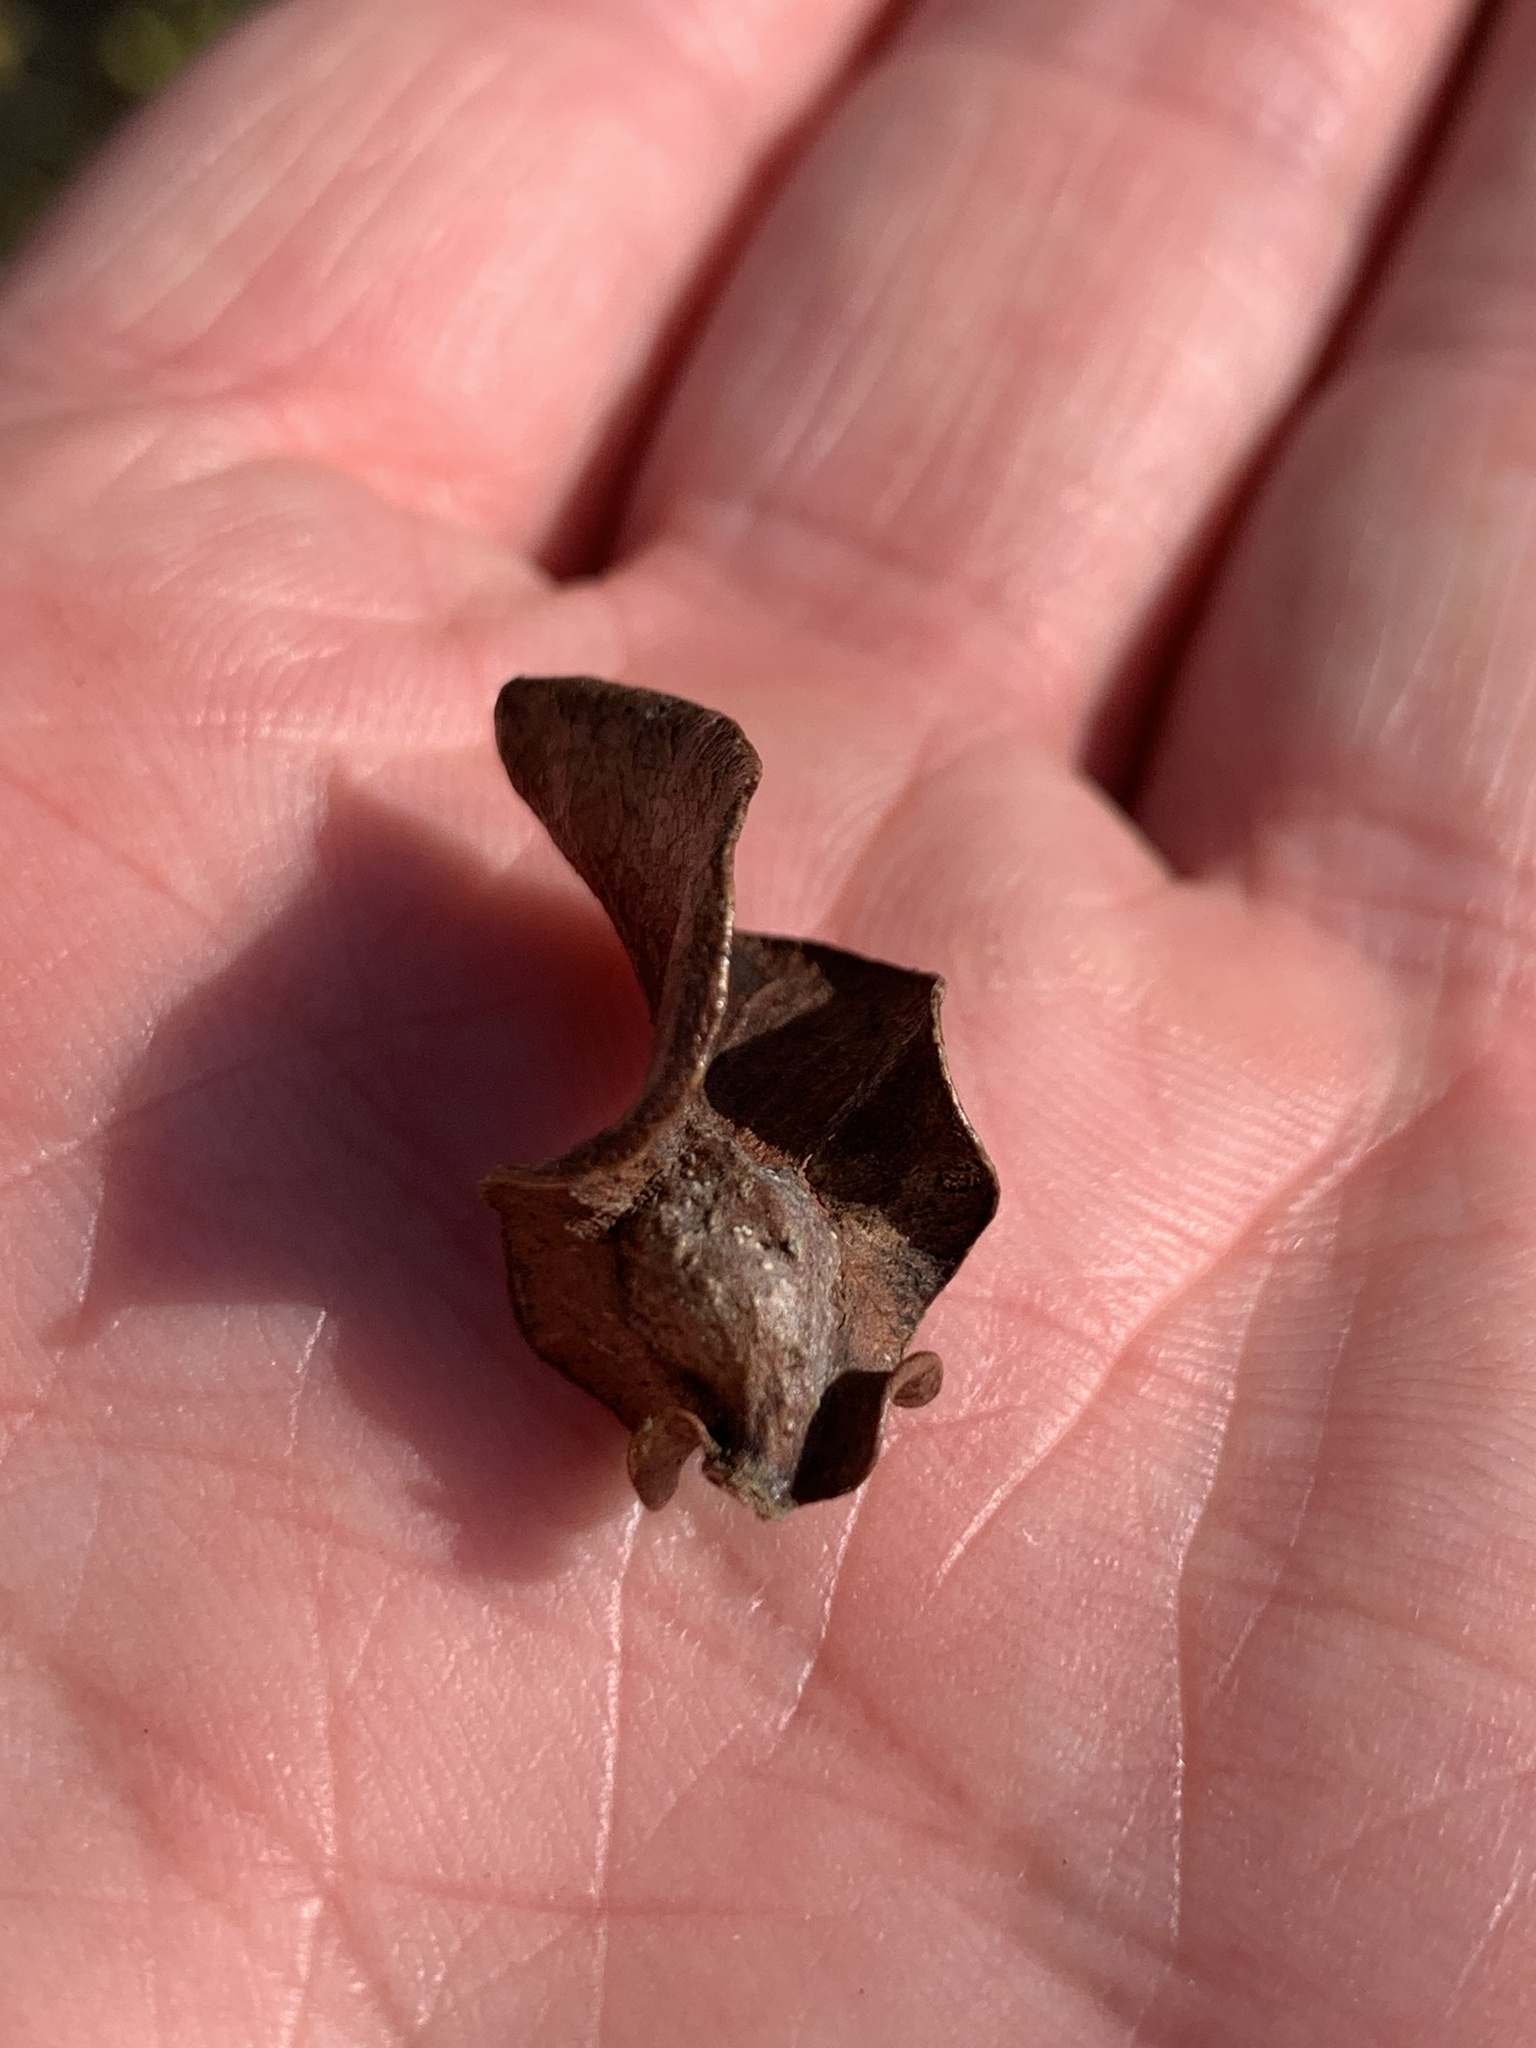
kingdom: Animalia
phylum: Arthropoda
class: Insecta
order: Hymenoptera
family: Cynipidae
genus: Andricus
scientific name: Andricus
